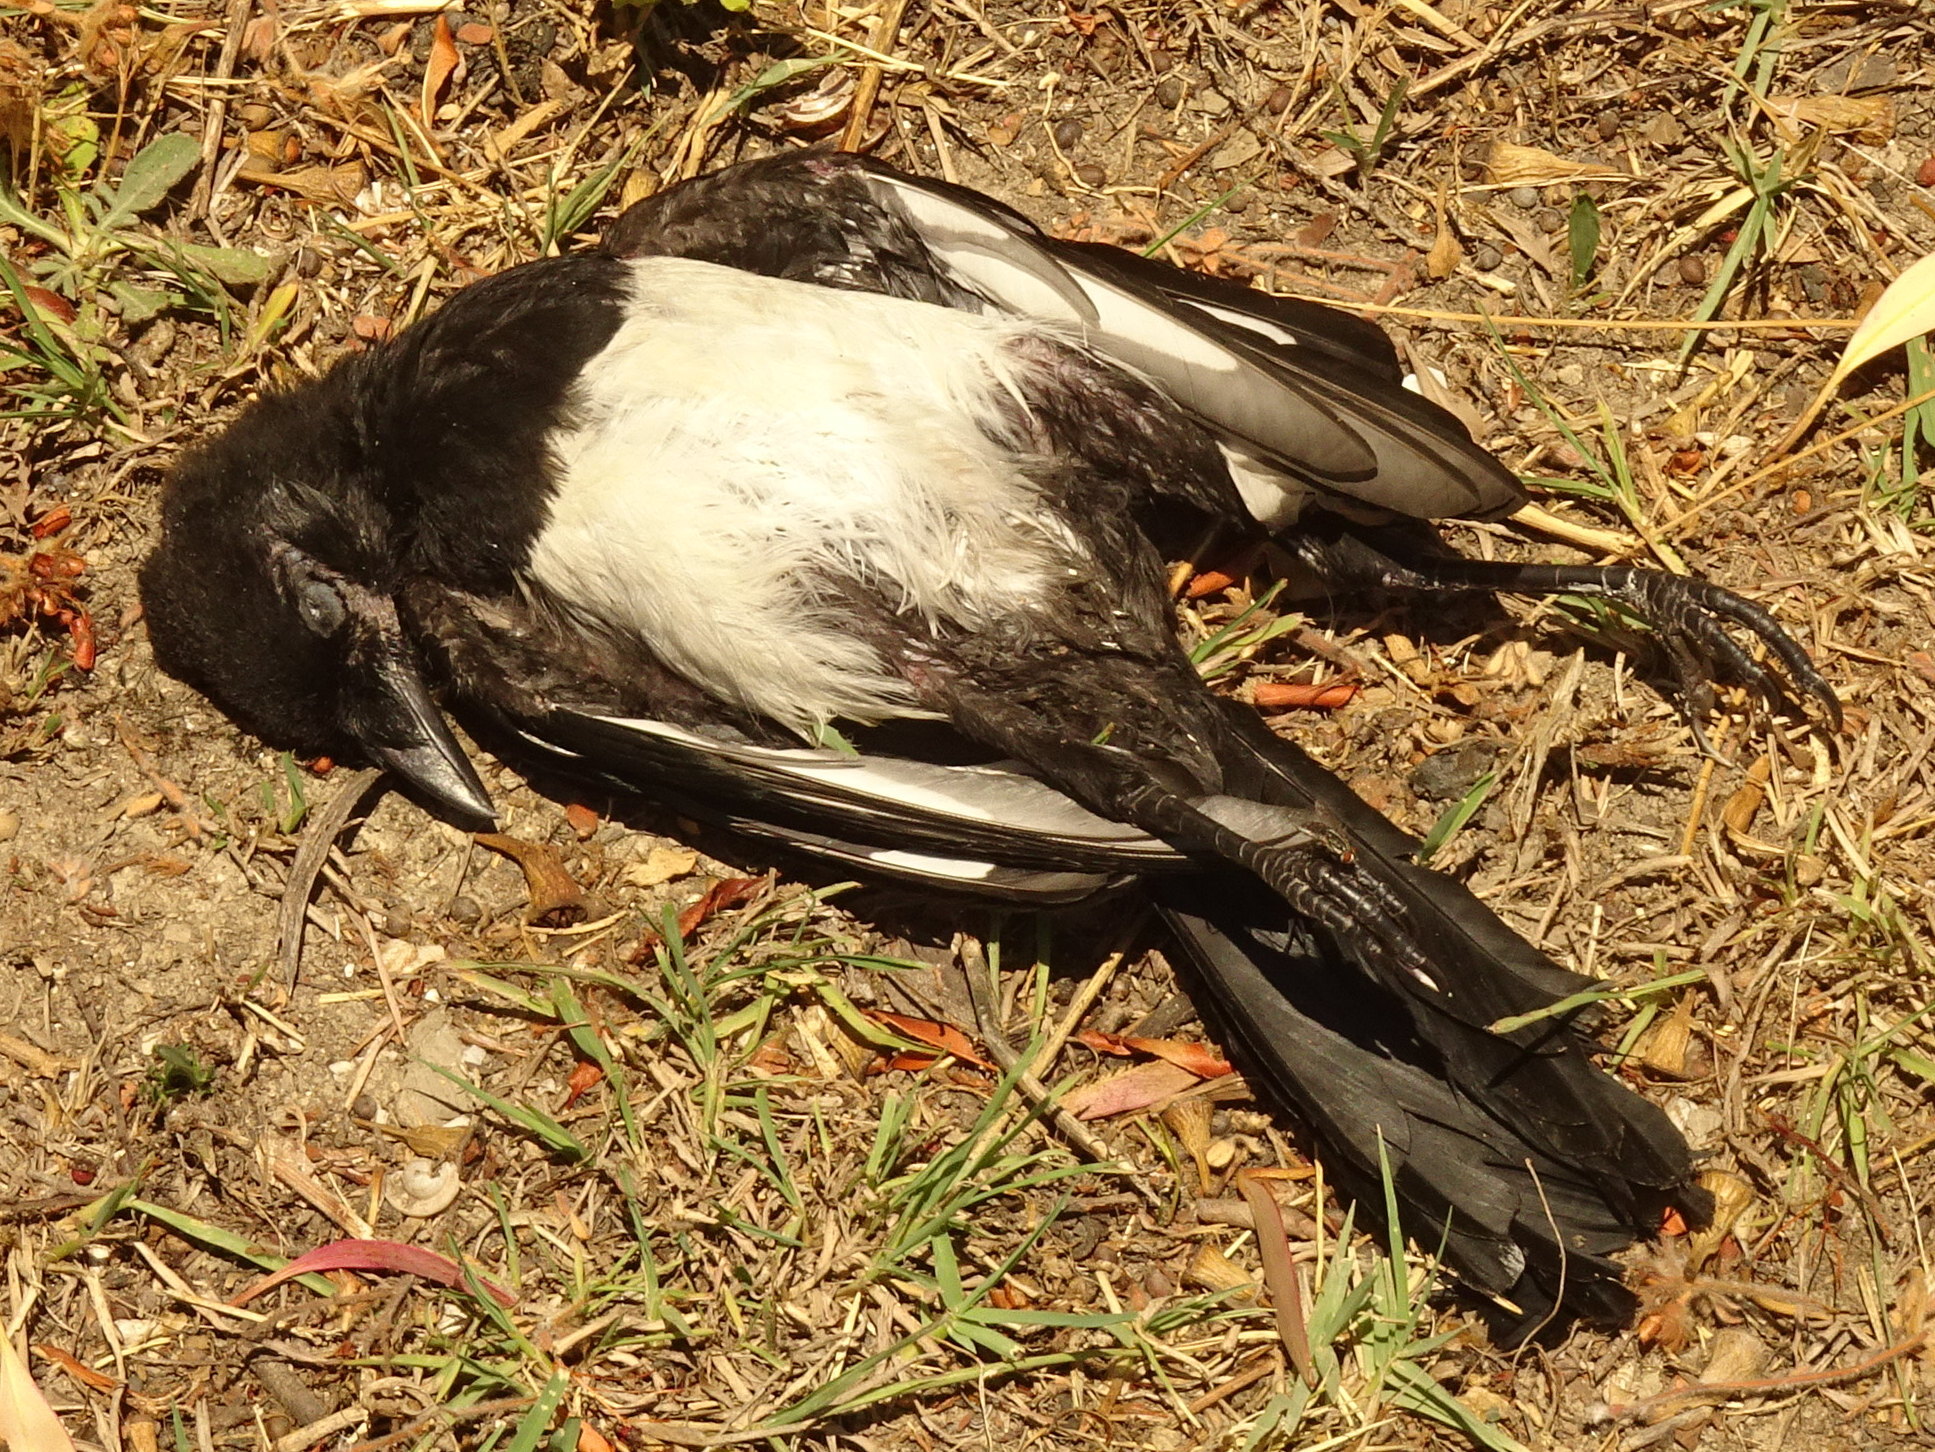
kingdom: Animalia
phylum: Chordata
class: Aves
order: Passeriformes
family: Corvidae
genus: Pica
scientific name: Pica pica
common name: Eurasian magpie
